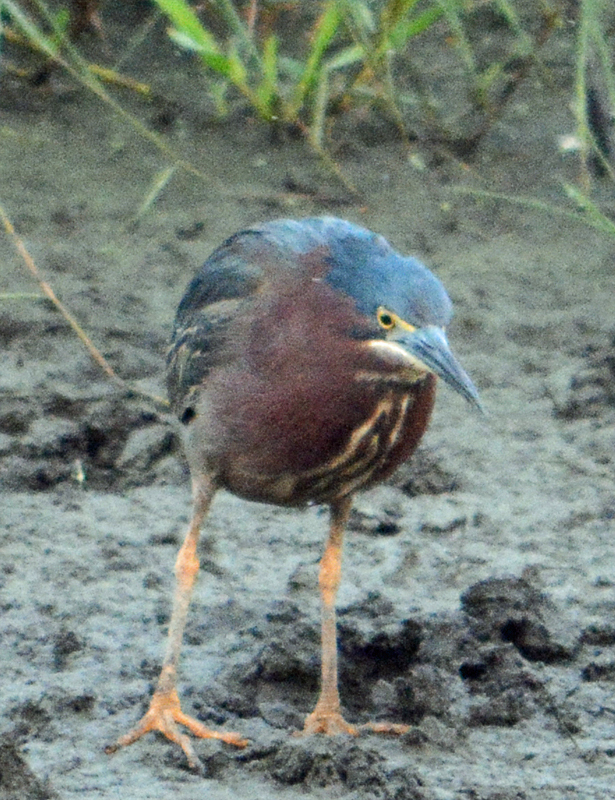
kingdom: Animalia
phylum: Chordata
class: Aves
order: Pelecaniformes
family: Ardeidae
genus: Butorides
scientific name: Butorides virescens
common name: Green heron
